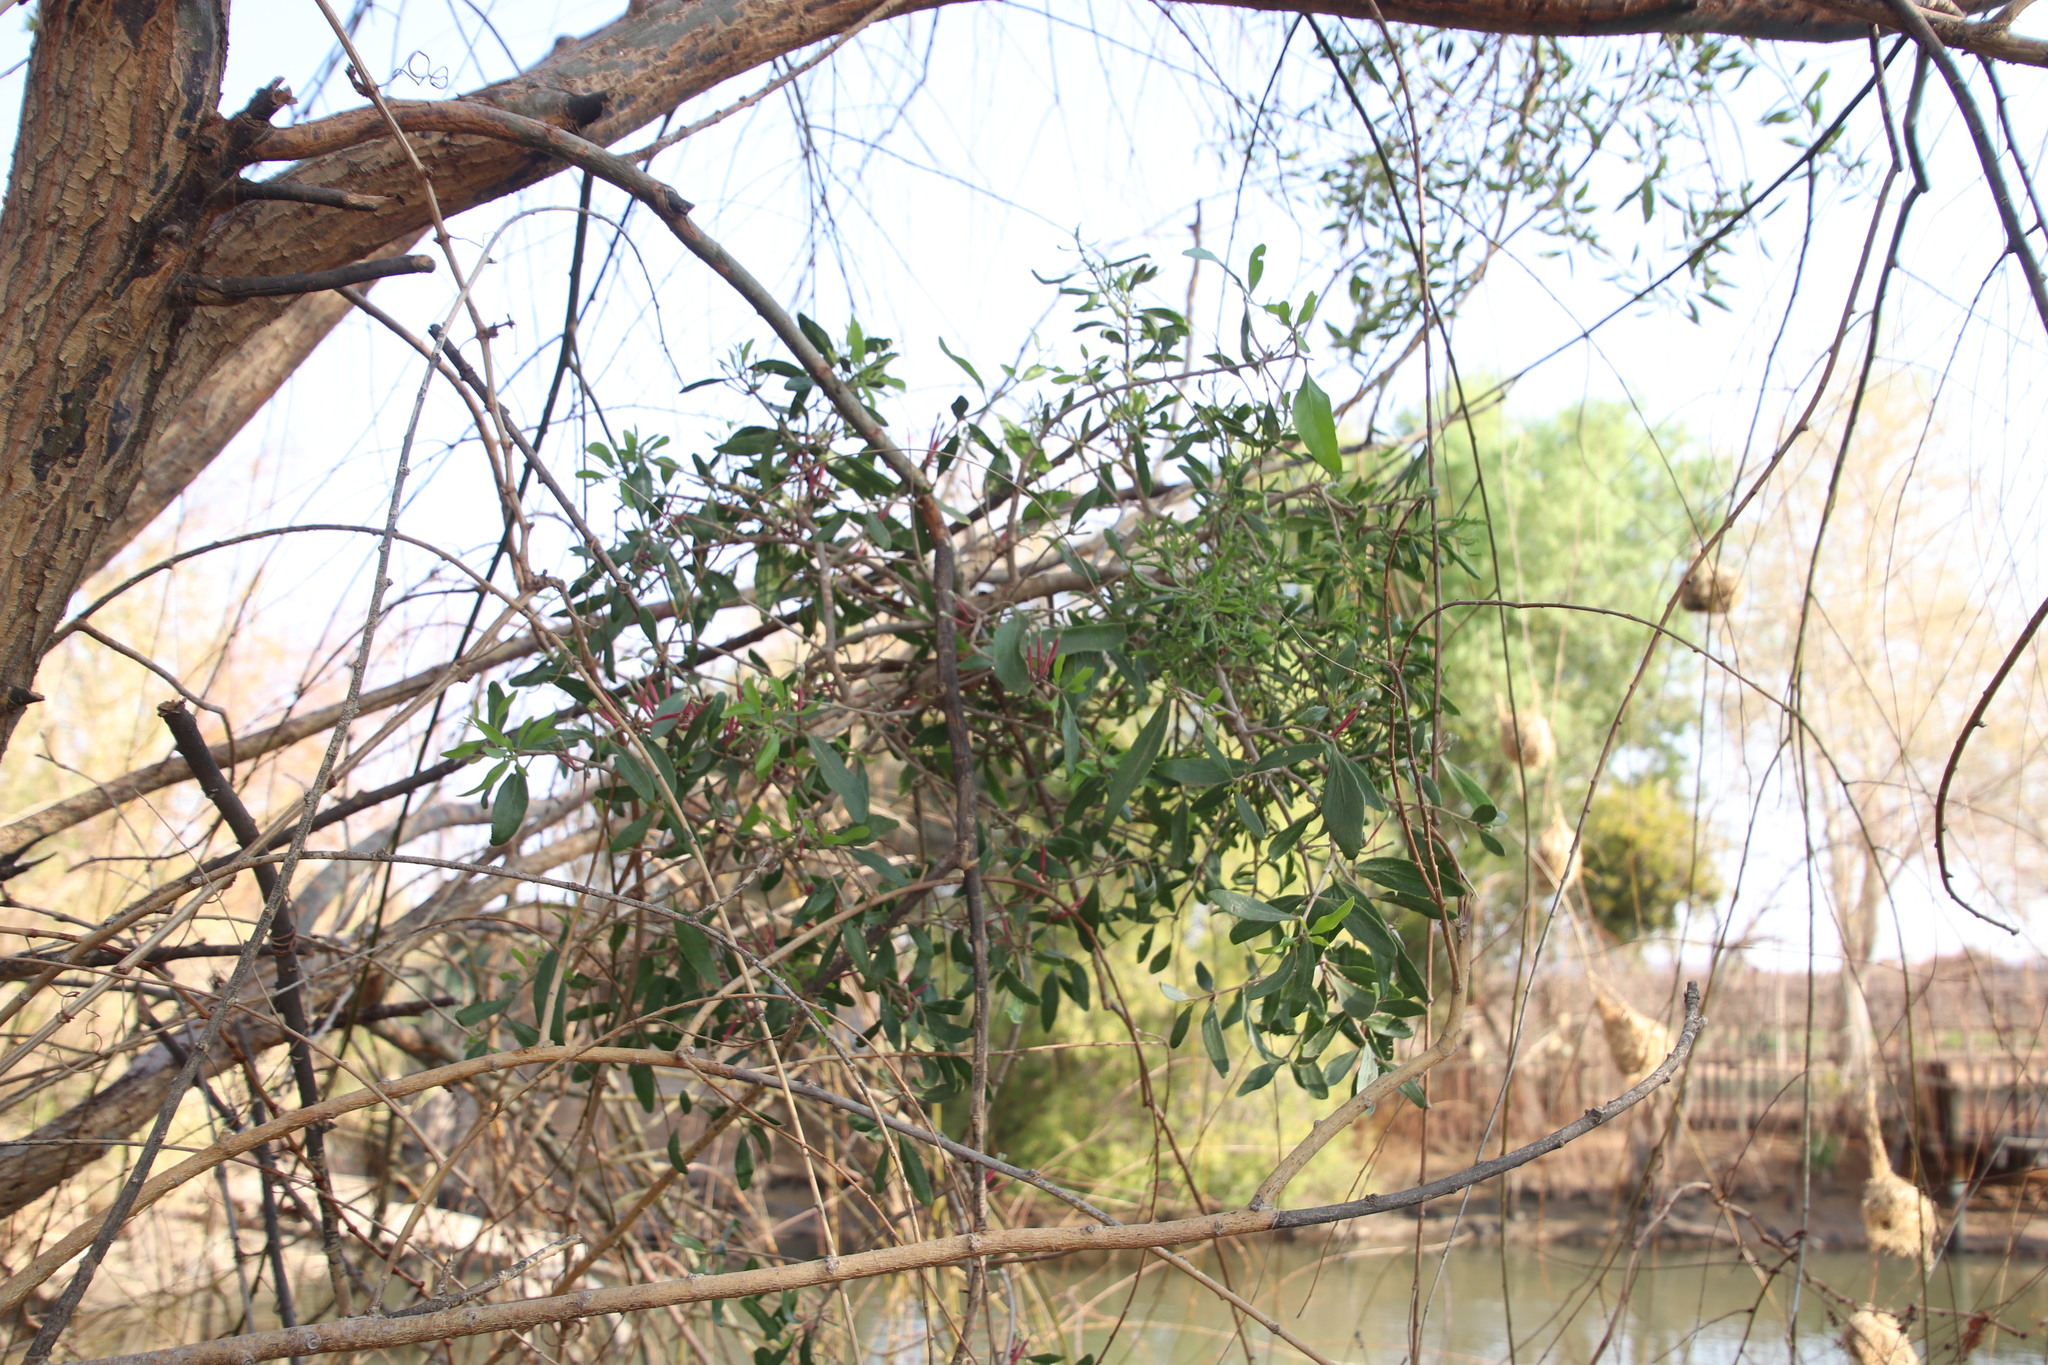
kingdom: Plantae
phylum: Tracheophyta
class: Magnoliopsida
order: Santalales
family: Loranthaceae
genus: Tapinanthus
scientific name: Tapinanthus oleifolius
